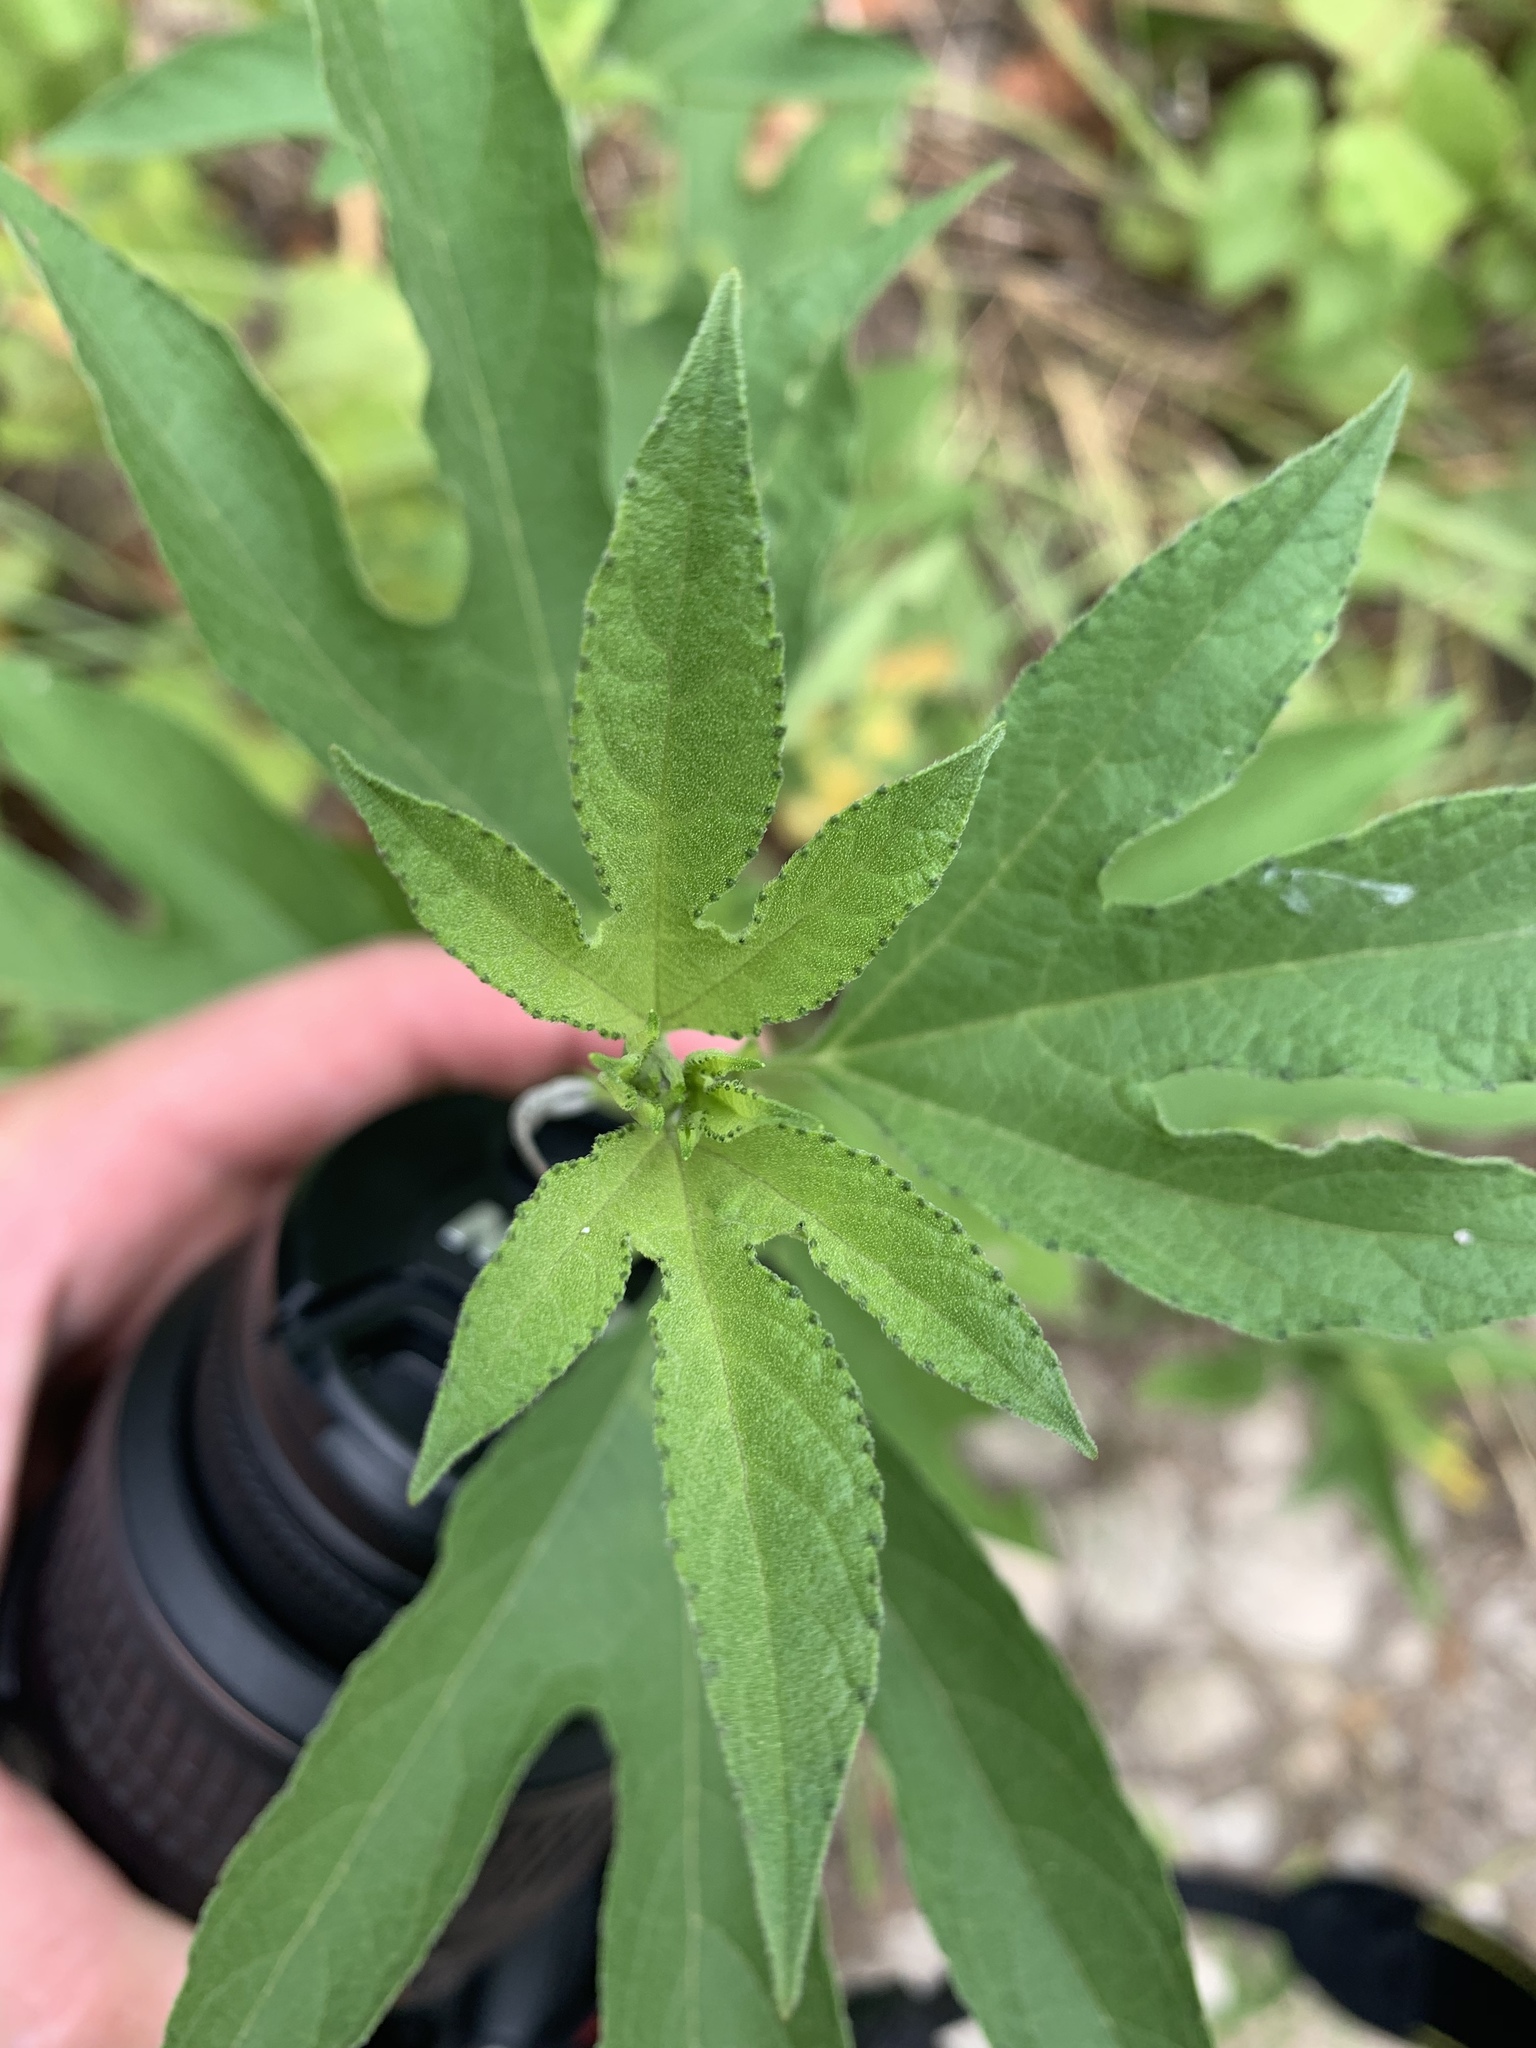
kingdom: Plantae
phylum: Tracheophyta
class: Magnoliopsida
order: Asterales
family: Asteraceae
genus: Ambrosia
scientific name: Ambrosia trifida
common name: Giant ragweed
